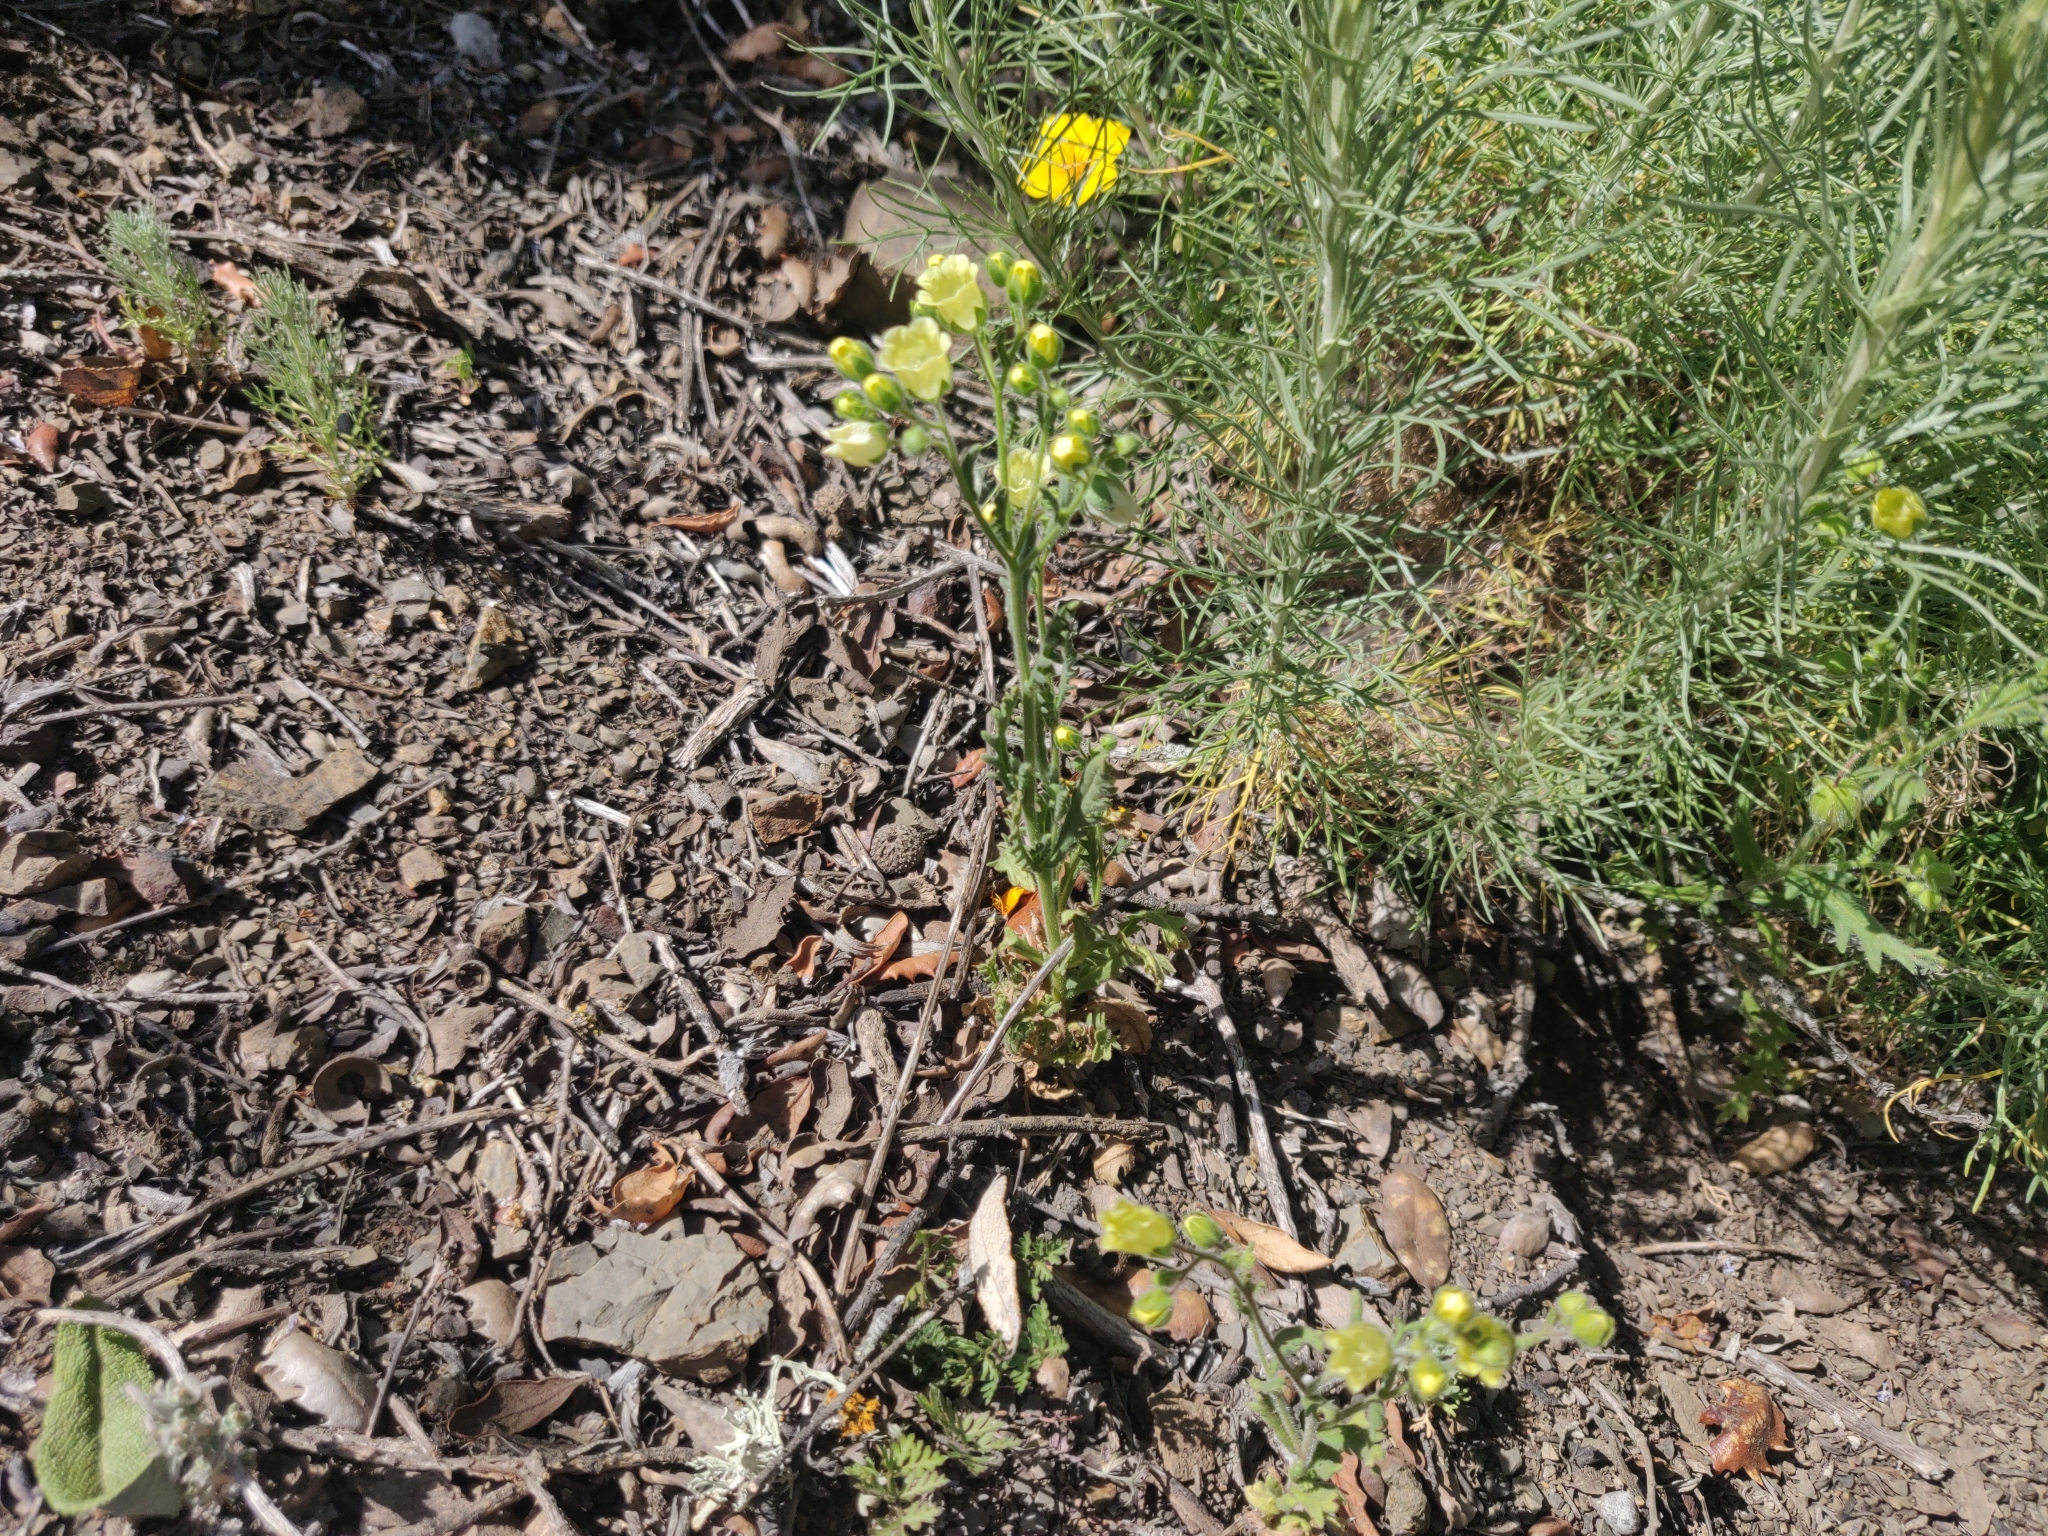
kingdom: Plantae
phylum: Tracheophyta
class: Magnoliopsida
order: Boraginales
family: Hydrophyllaceae
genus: Emmenanthe
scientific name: Emmenanthe penduliflora
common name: Whispering-bells
